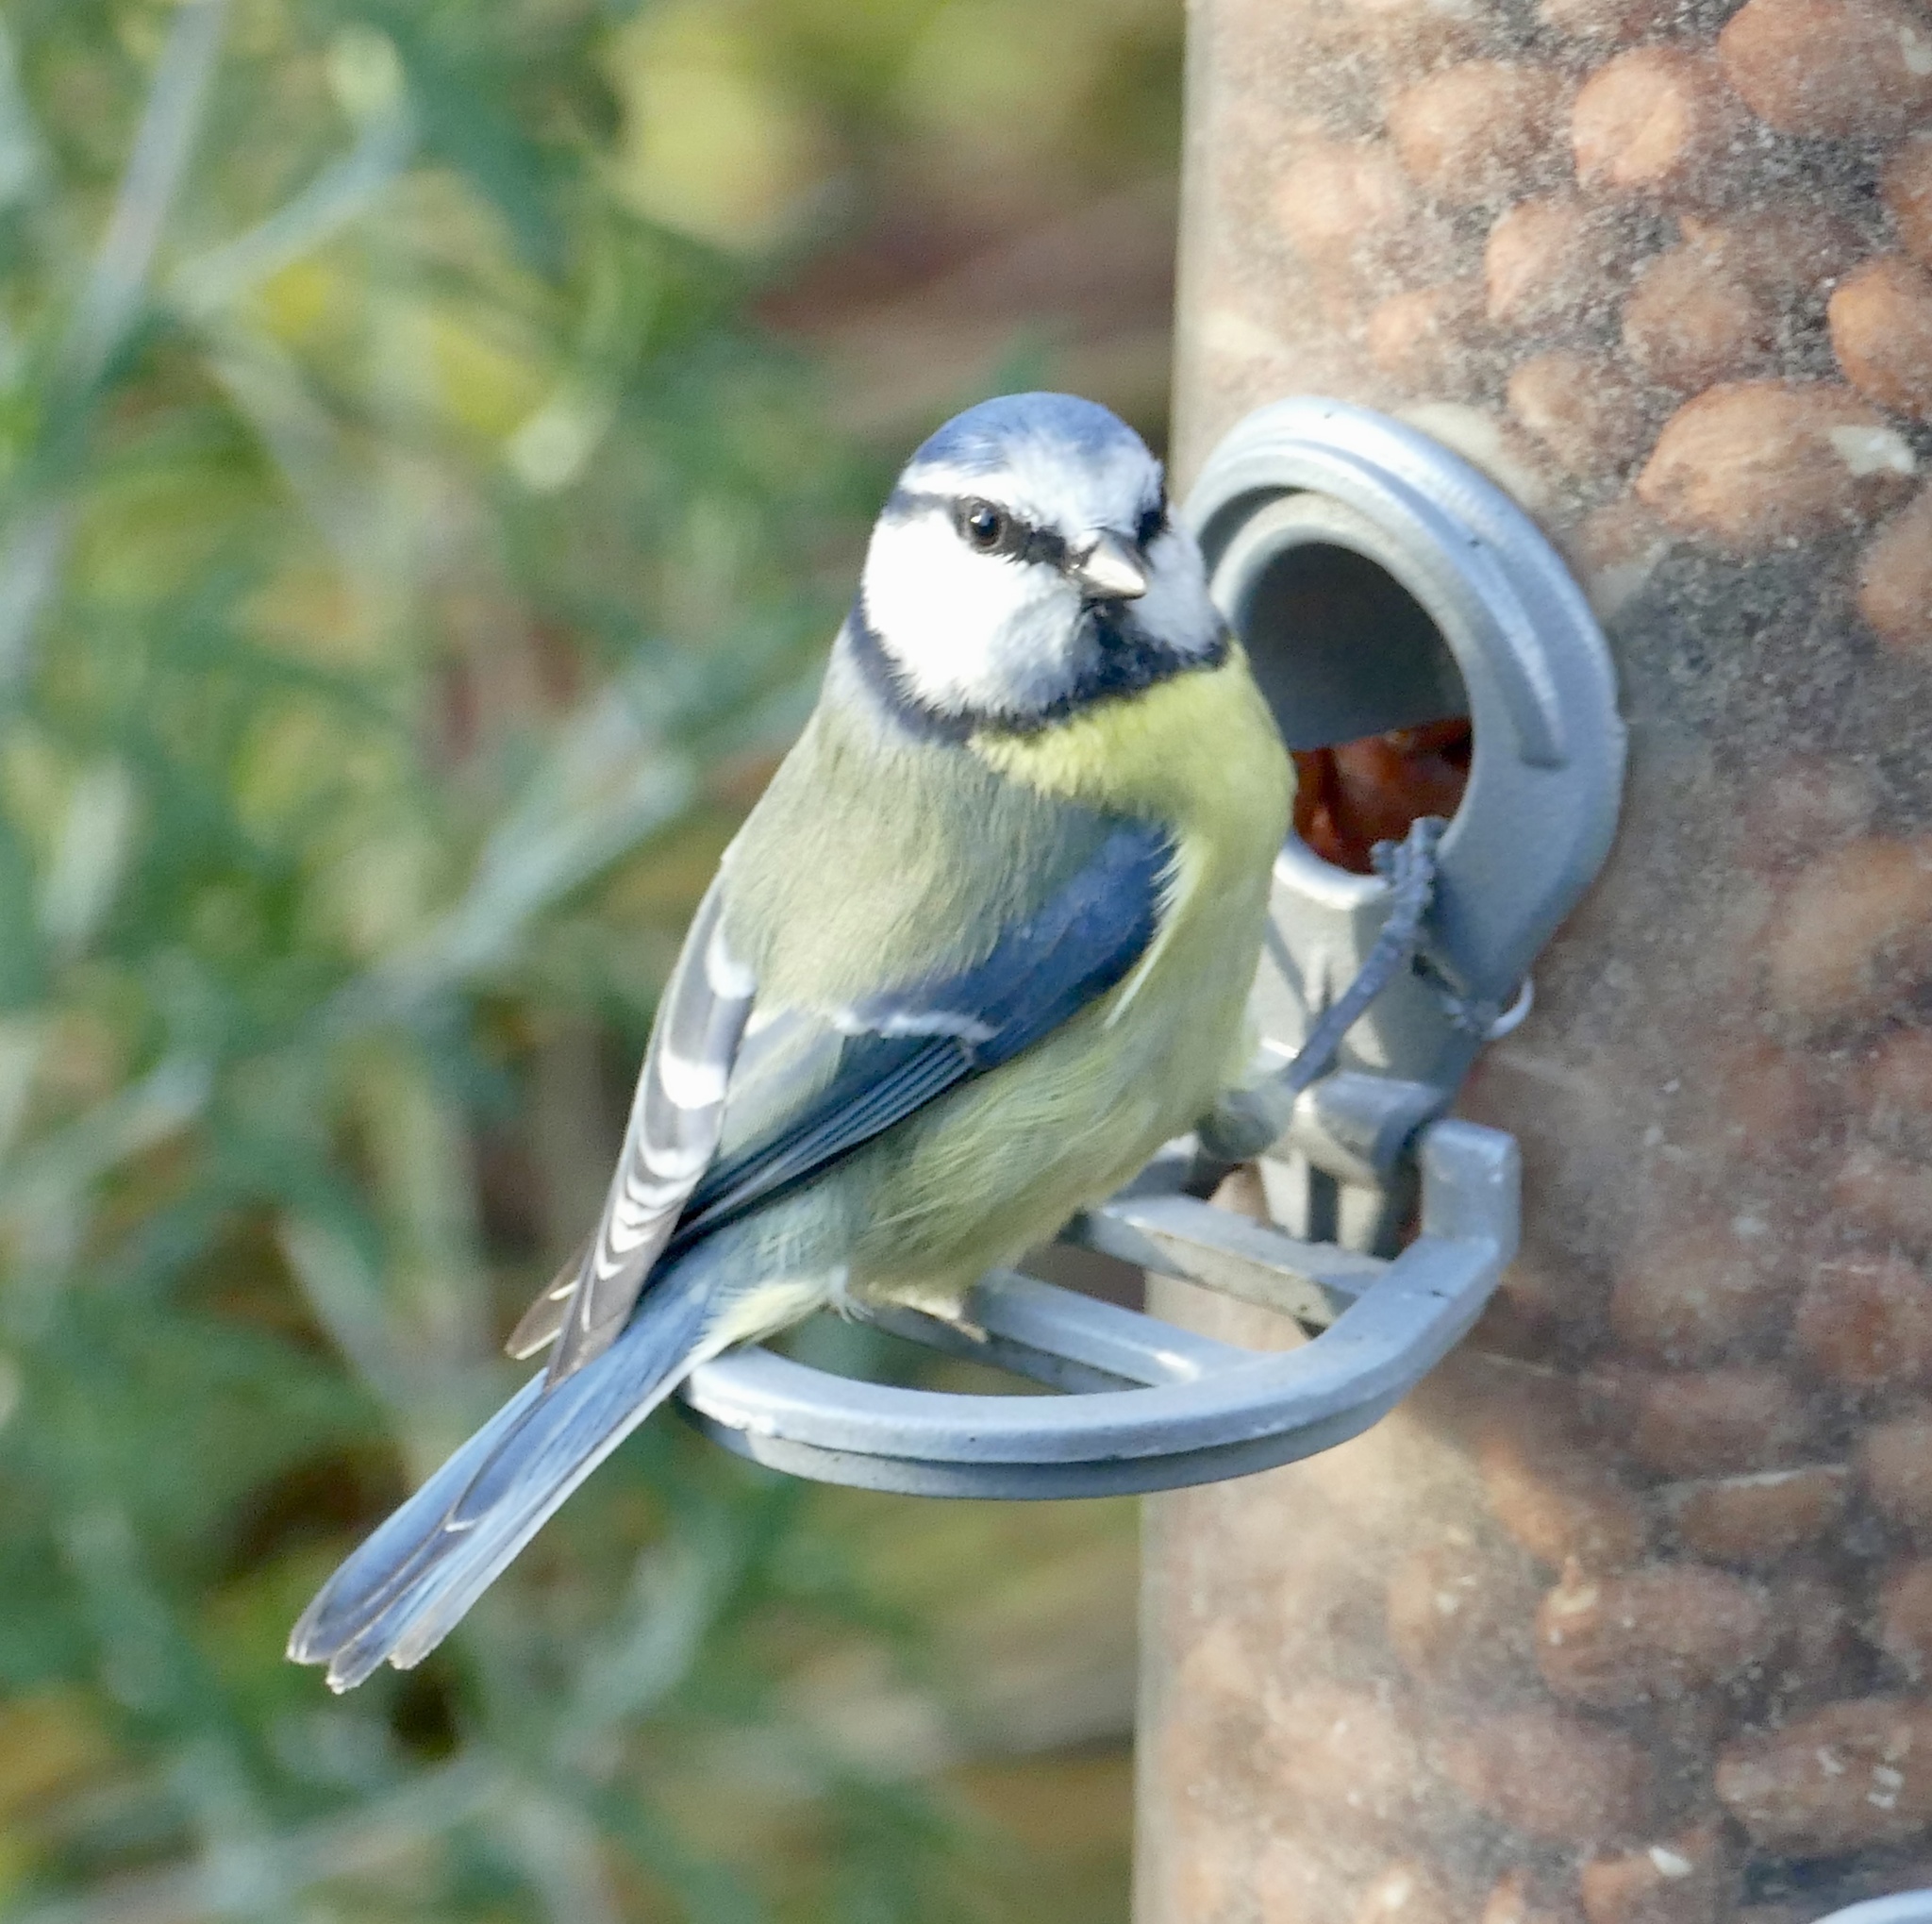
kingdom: Animalia
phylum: Chordata
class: Aves
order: Passeriformes
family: Paridae
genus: Cyanistes
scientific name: Cyanistes caeruleus
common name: Eurasian blue tit
